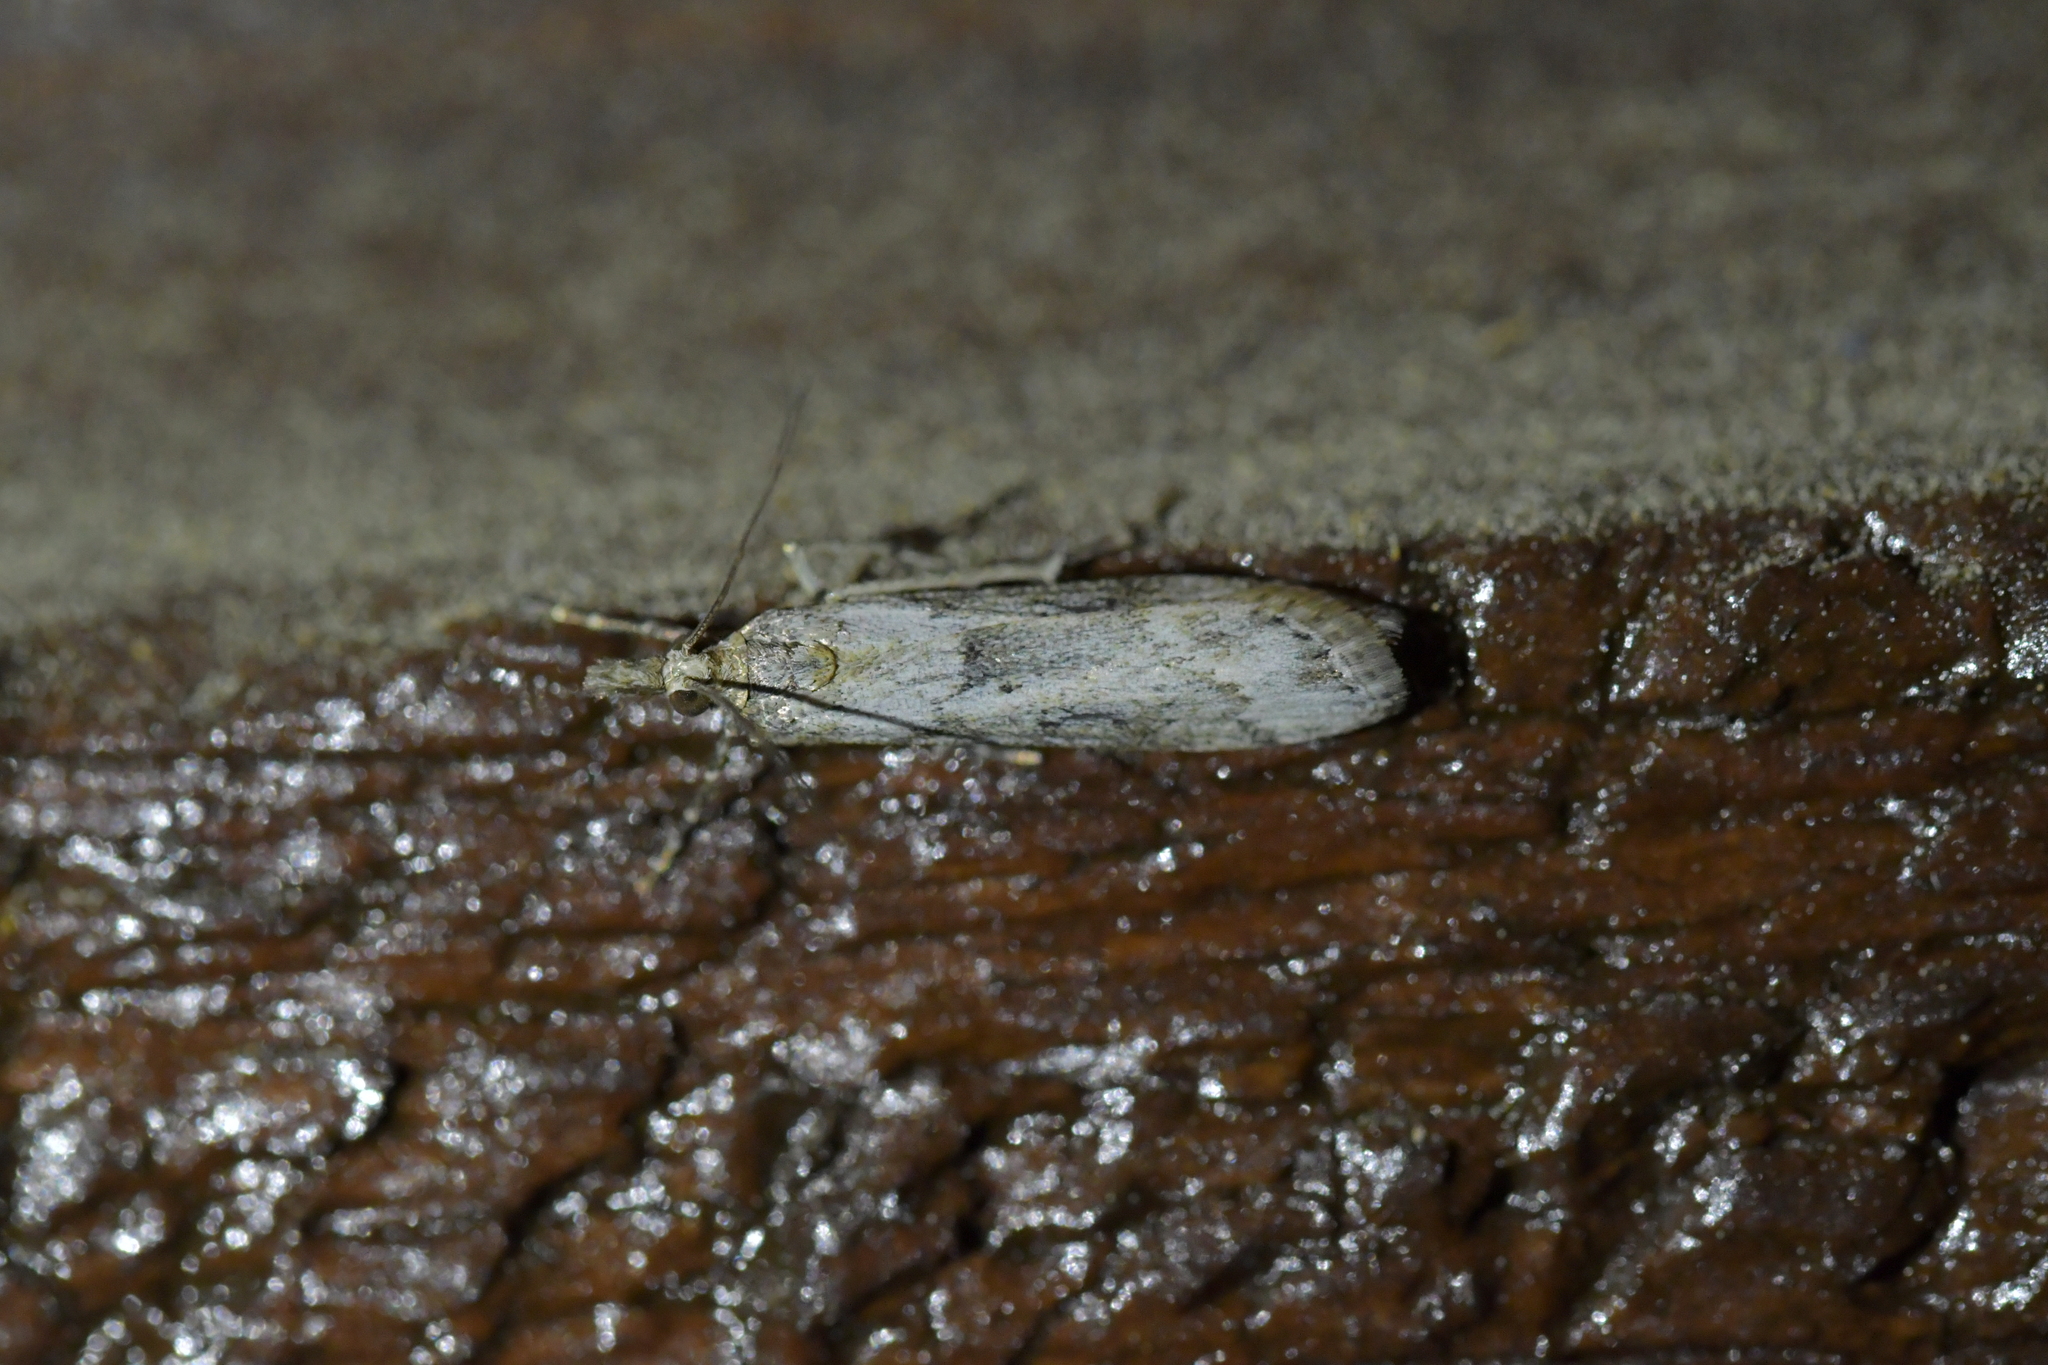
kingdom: Animalia
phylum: Arthropoda
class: Insecta
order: Lepidoptera
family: Crambidae
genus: Eudonia
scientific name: Eudonia leptalea
